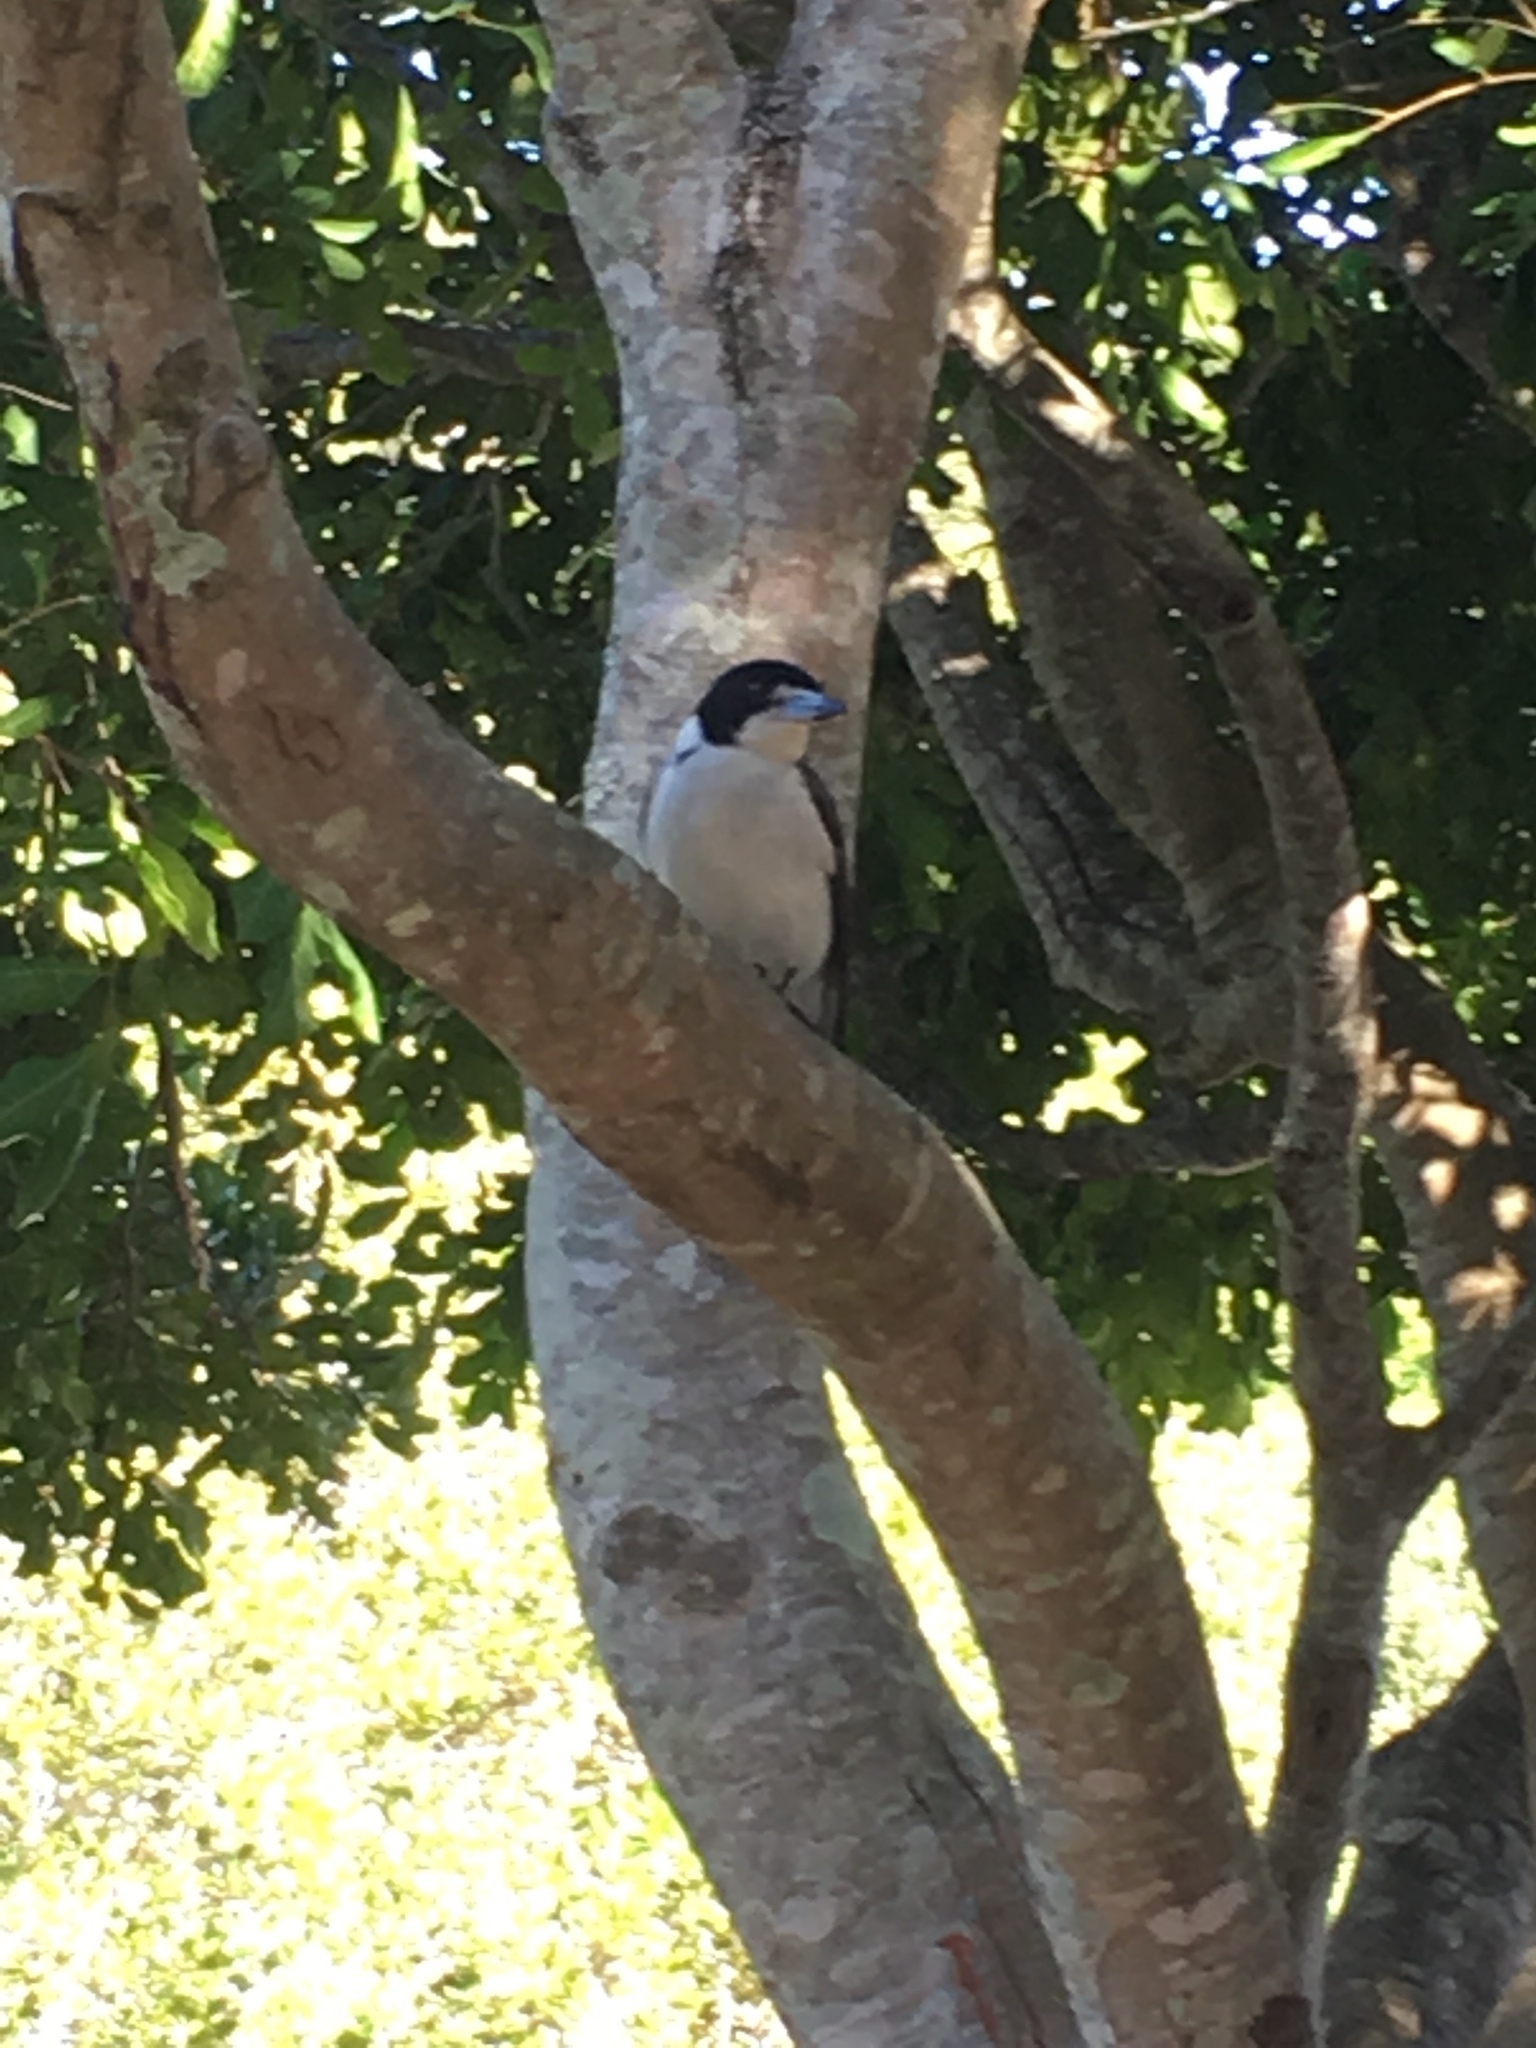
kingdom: Animalia
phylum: Chordata
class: Aves
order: Passeriformes
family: Cracticidae
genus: Cracticus
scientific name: Cracticus torquatus
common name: Grey butcherbird
